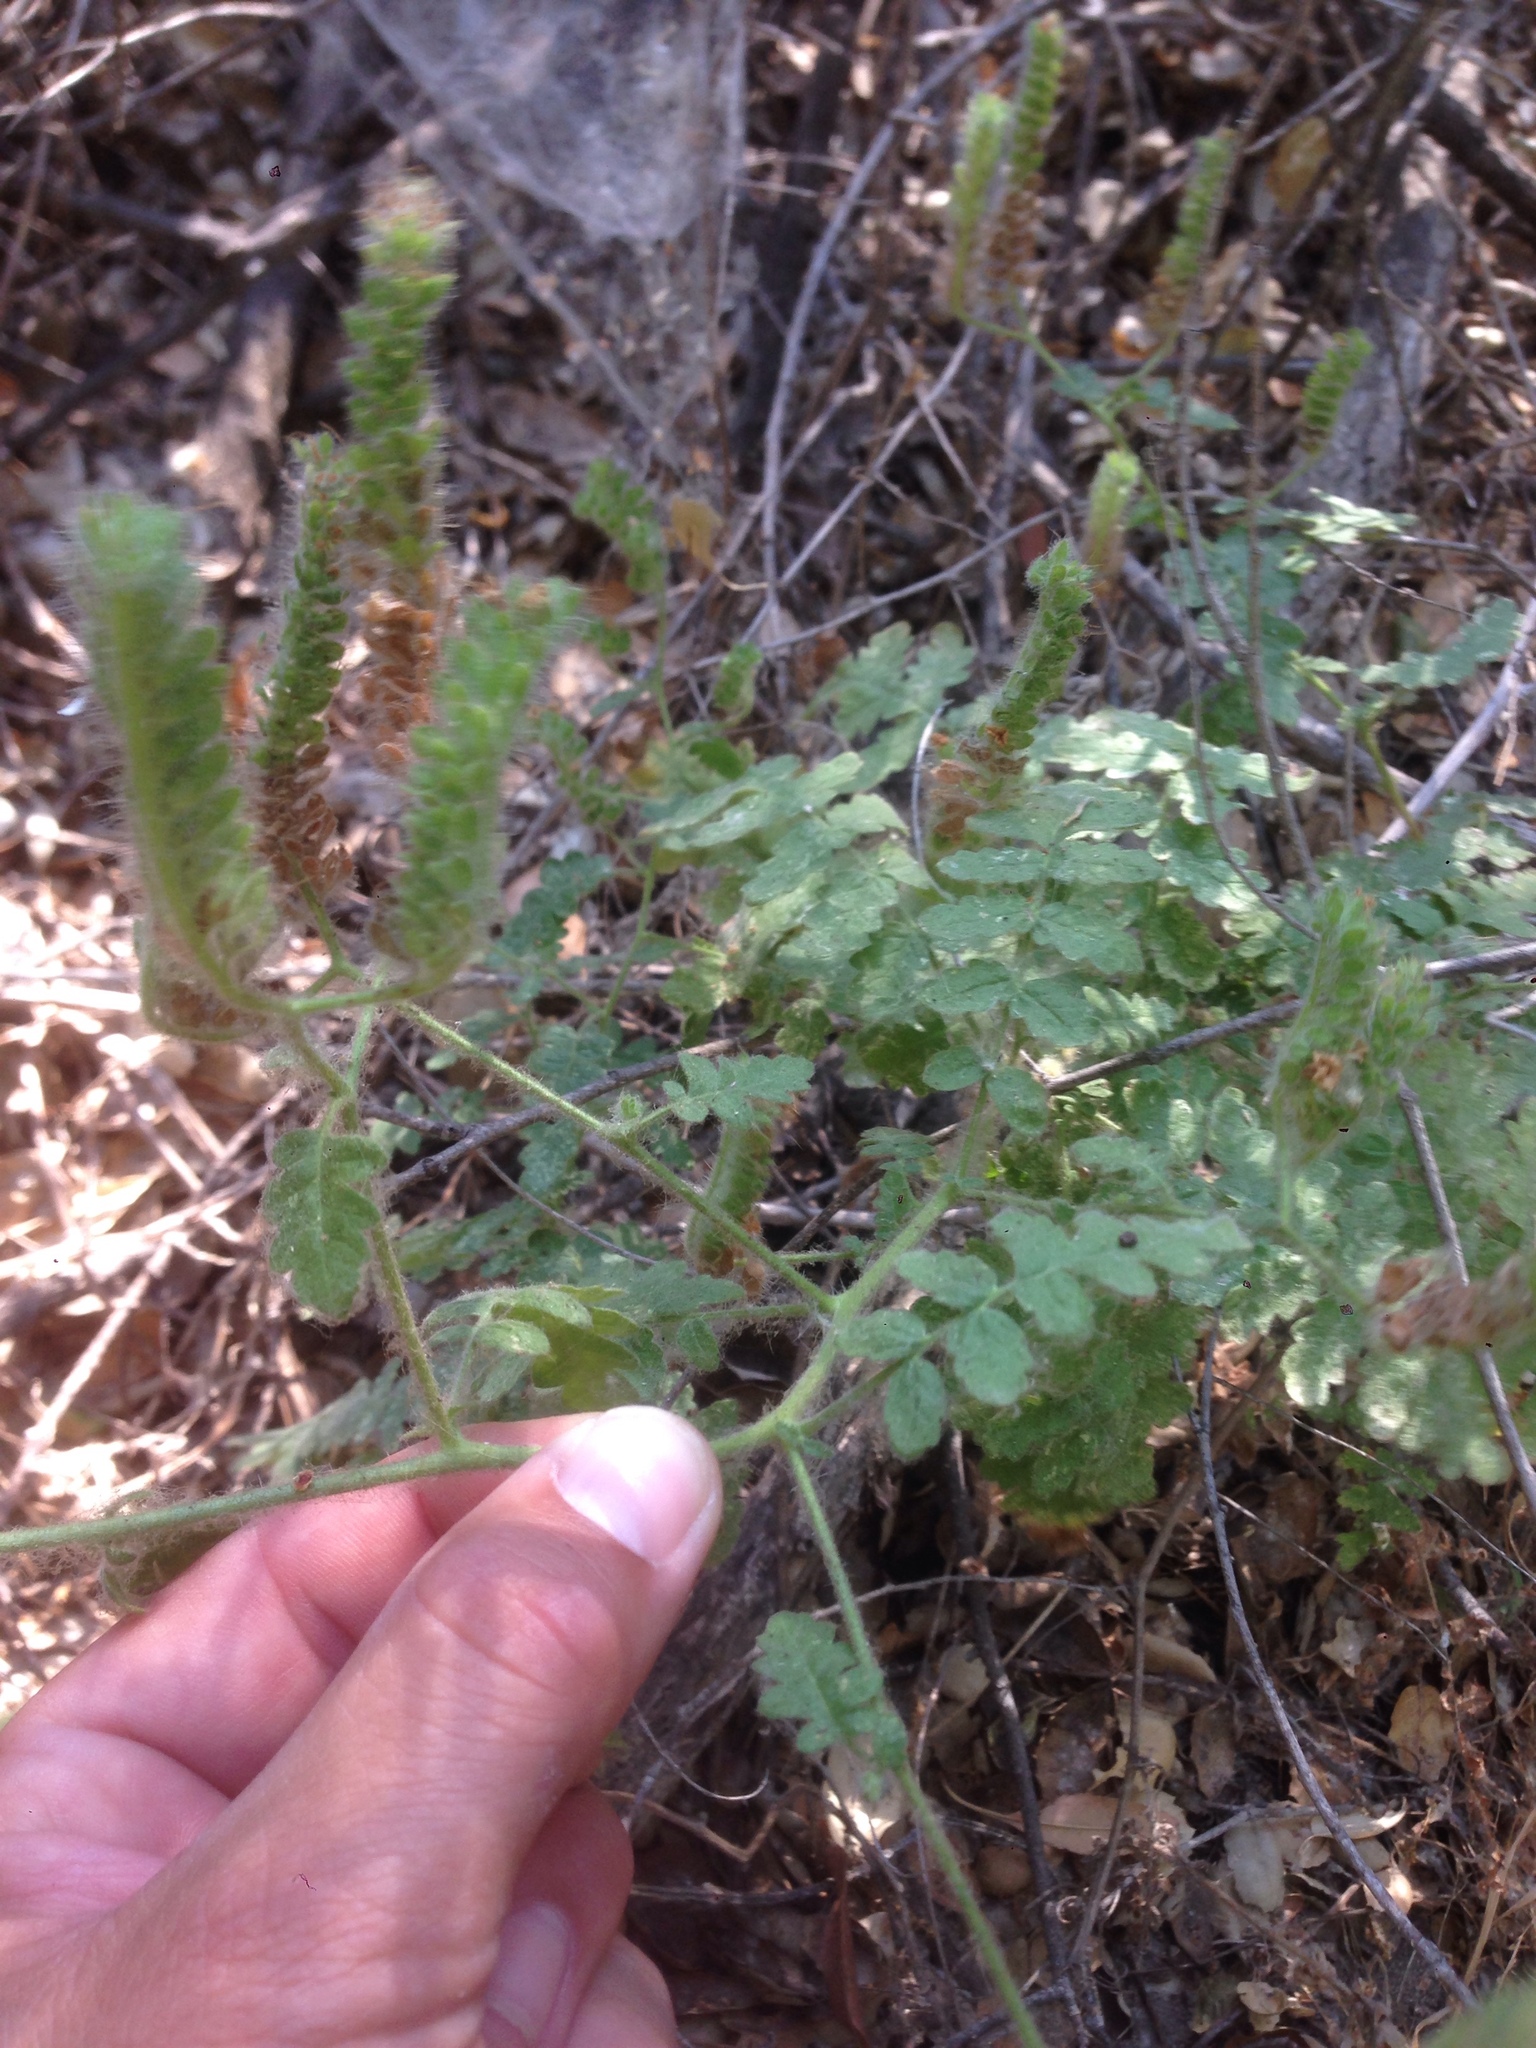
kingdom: Plantae
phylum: Tracheophyta
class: Magnoliopsida
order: Boraginales
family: Hydrophyllaceae
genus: Phacelia
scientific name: Phacelia ramosissima
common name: Branching phacelia
